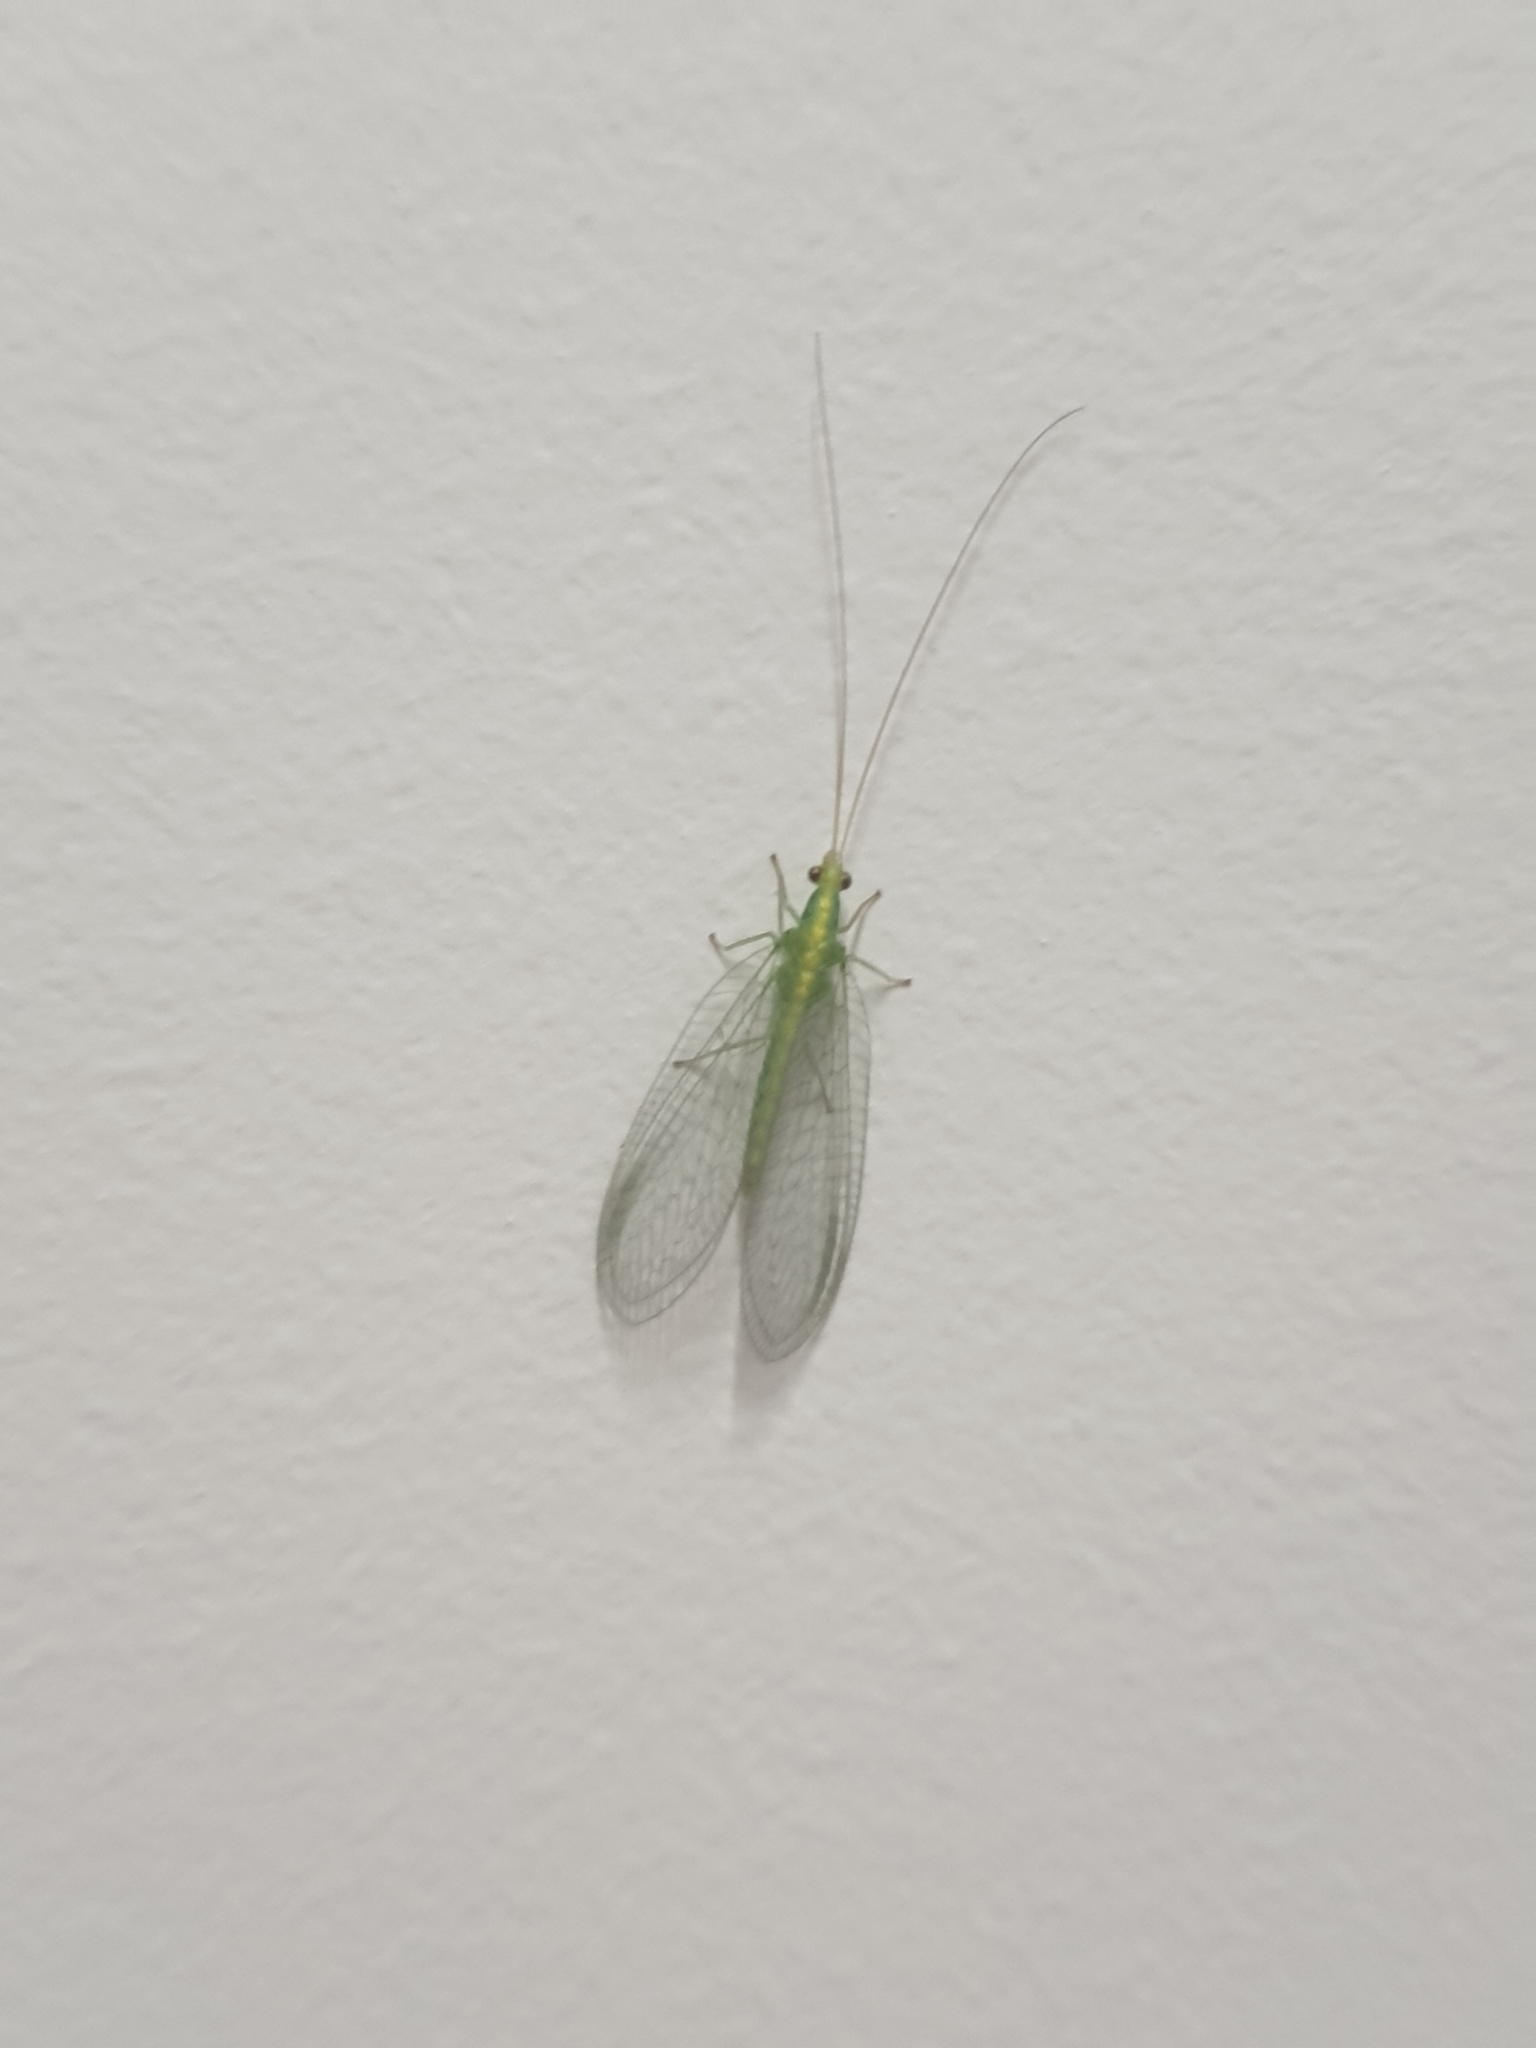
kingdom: Animalia
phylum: Arthropoda
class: Insecta
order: Neuroptera
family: Chrysopidae
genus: Mallada
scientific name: Mallada basalis
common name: Green lacewing
